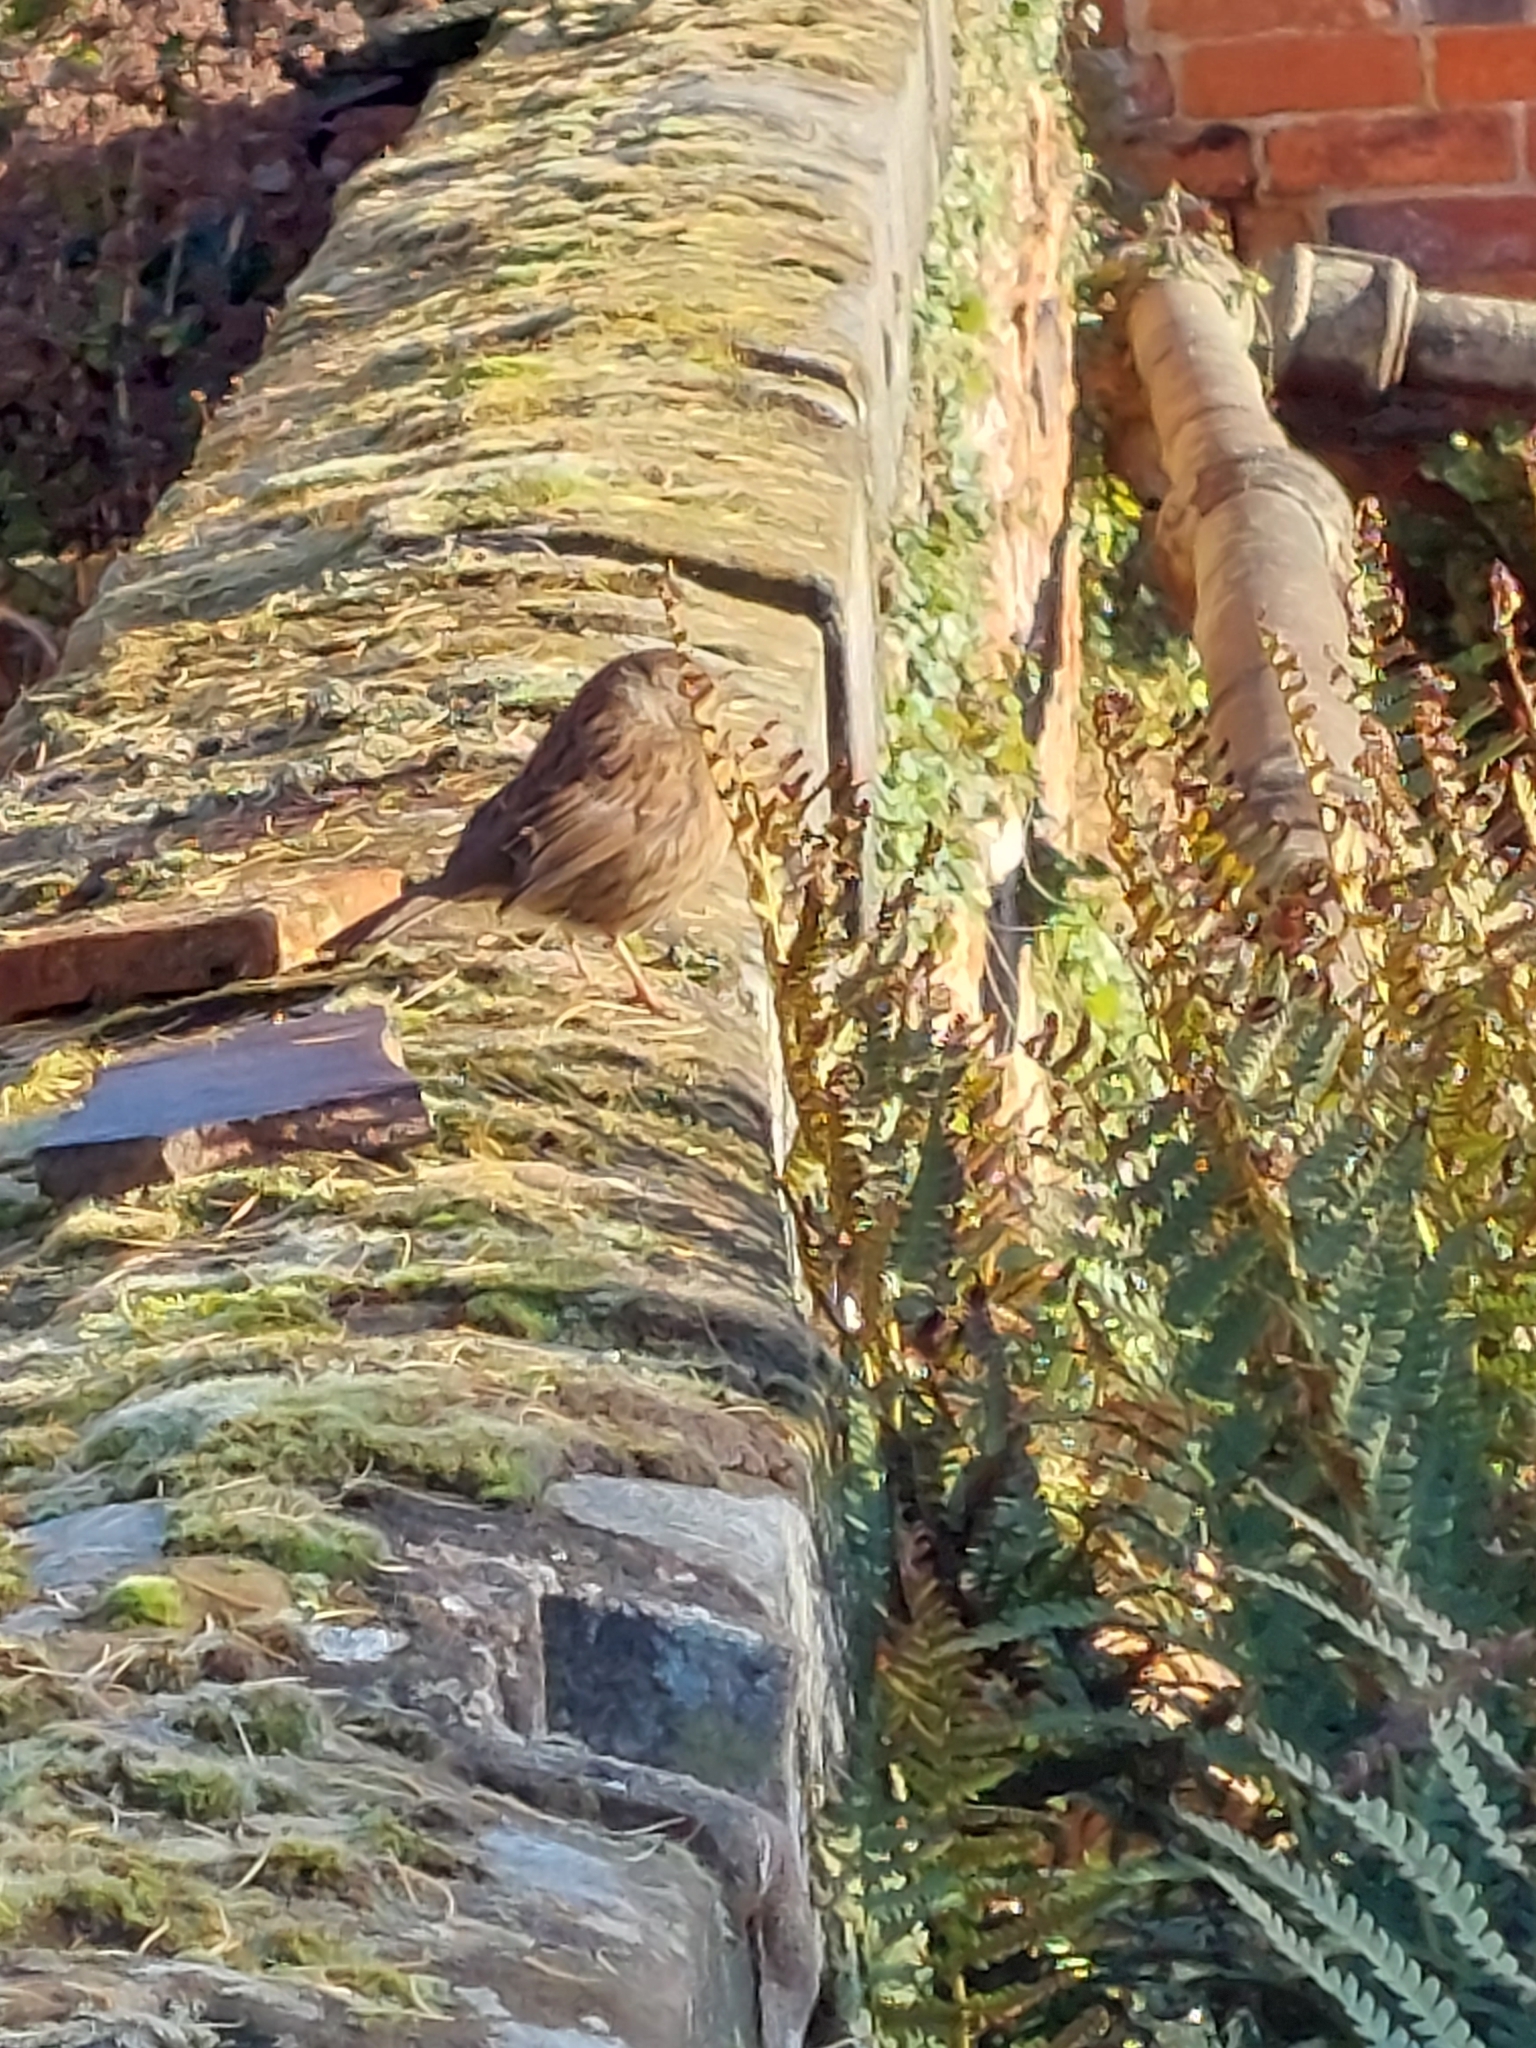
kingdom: Animalia
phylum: Chordata
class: Aves
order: Passeriformes
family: Prunellidae
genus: Prunella
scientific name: Prunella modularis
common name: Dunnock
